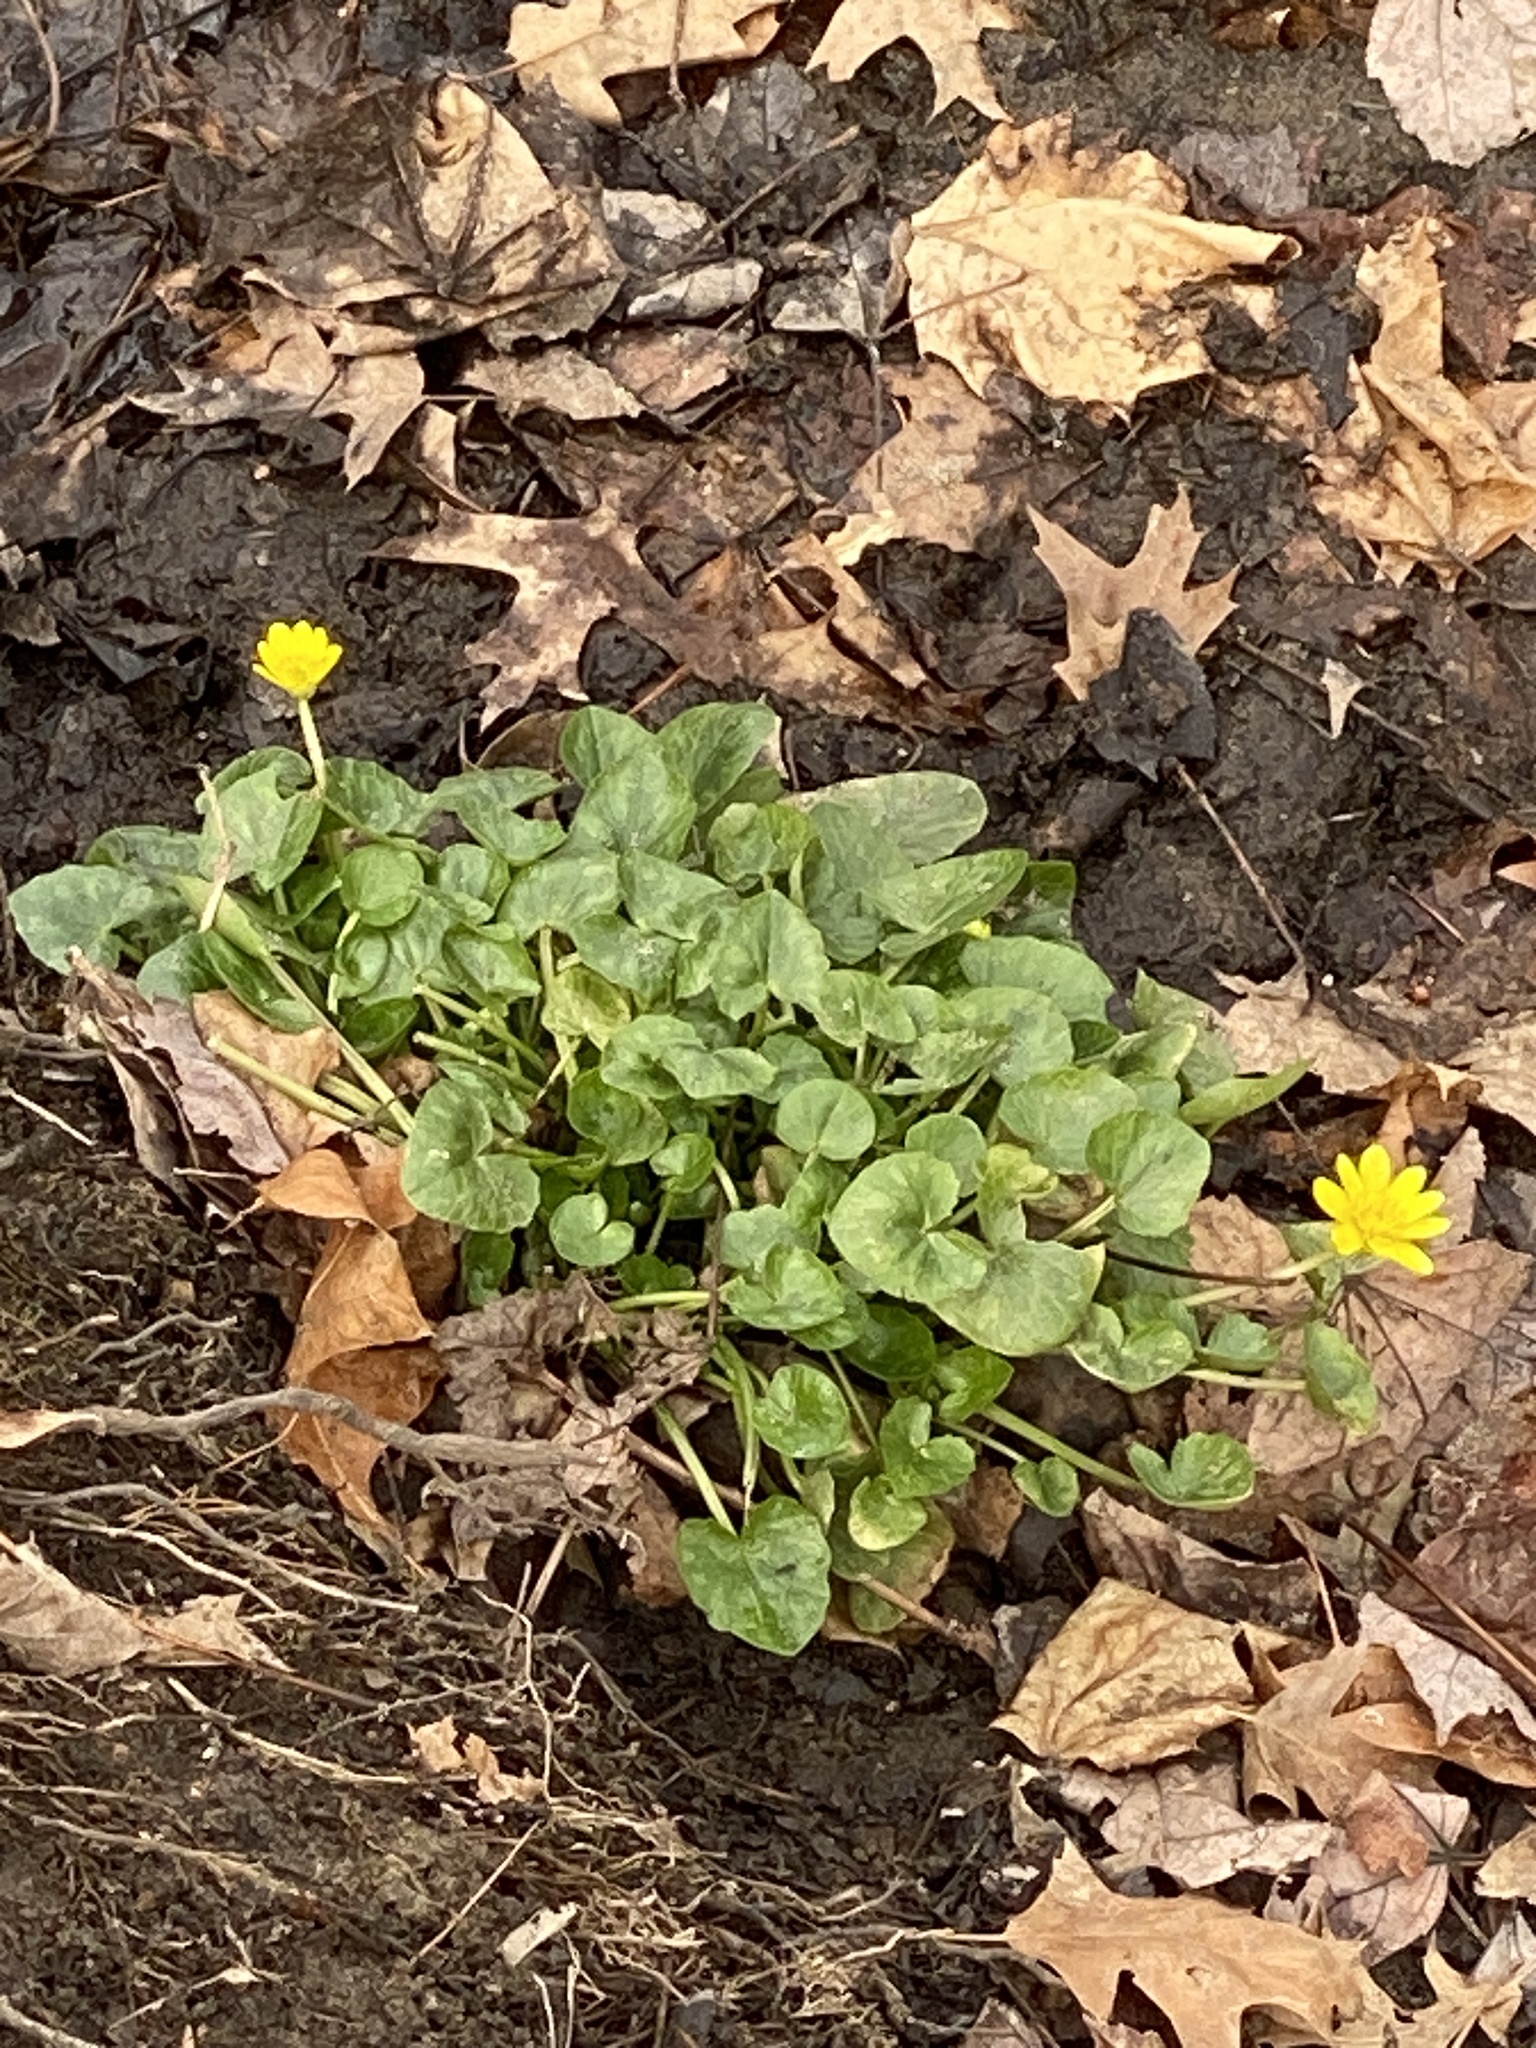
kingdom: Plantae
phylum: Tracheophyta
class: Magnoliopsida
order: Ranunculales
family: Ranunculaceae
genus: Ficaria
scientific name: Ficaria verna
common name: Lesser celandine
